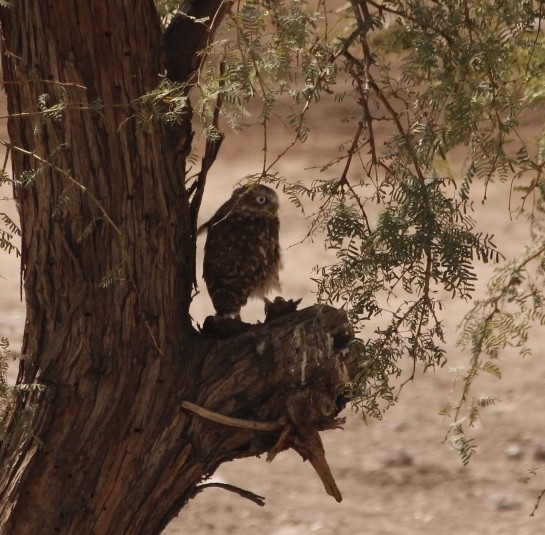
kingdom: Animalia
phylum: Chordata
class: Aves
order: Strigiformes
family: Strigidae
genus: Athene
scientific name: Athene cunicularia
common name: Burrowing owl
